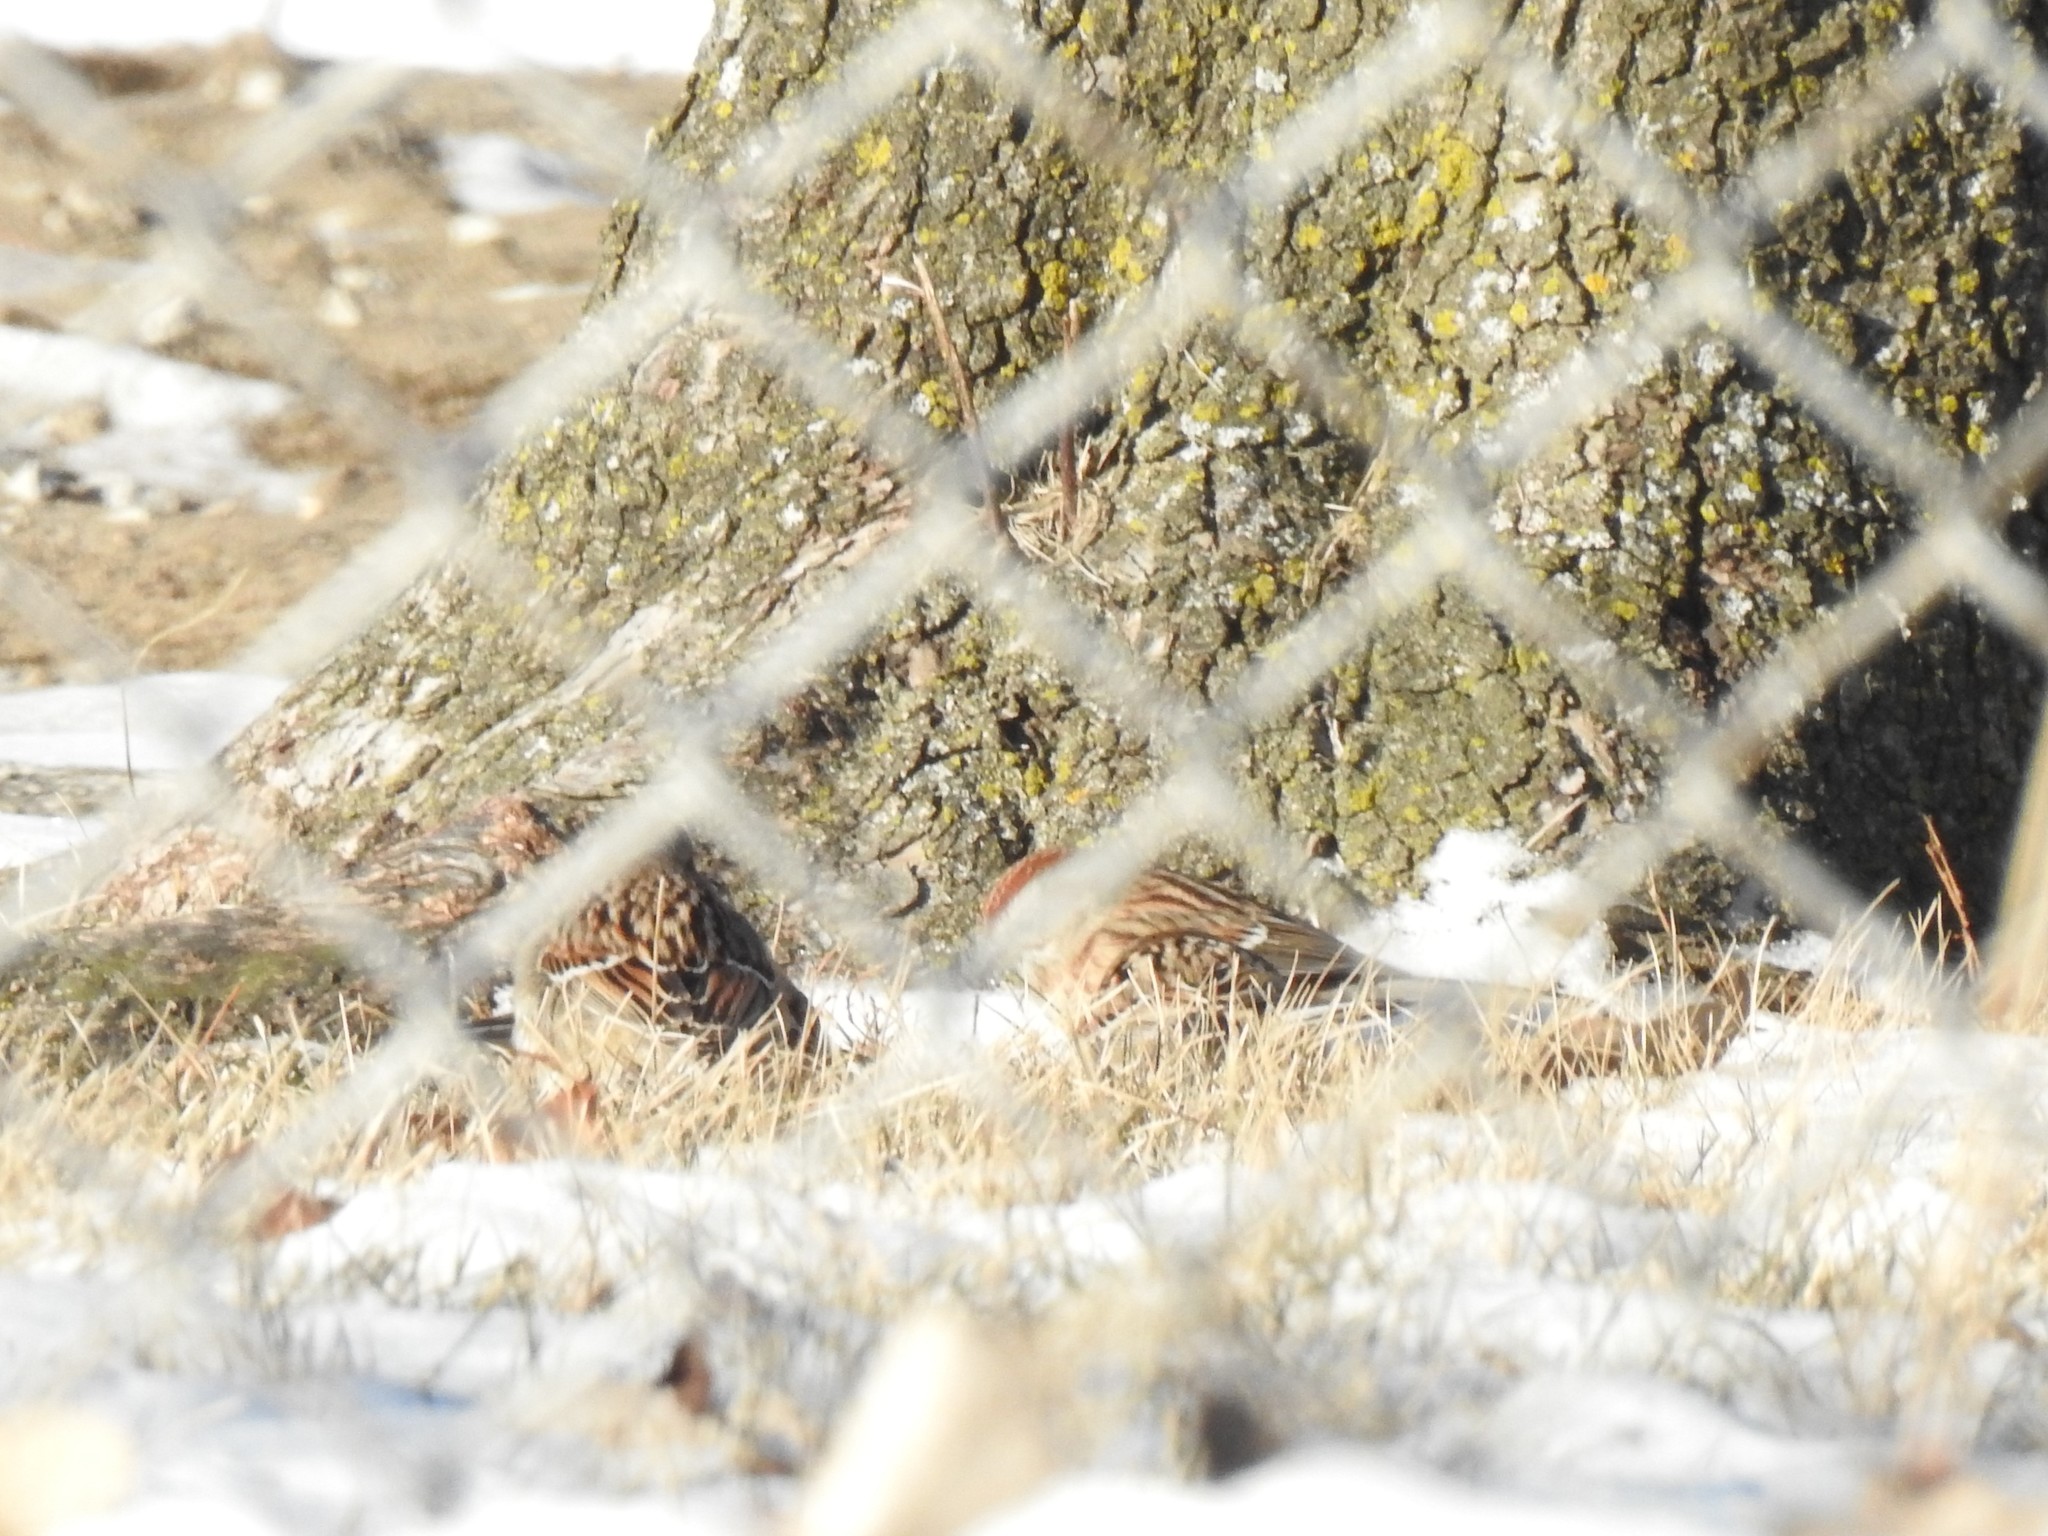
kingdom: Animalia
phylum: Chordata
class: Aves
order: Passeriformes
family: Passerellidae
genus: Spizelloides
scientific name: Spizelloides arborea
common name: American tree sparrow
